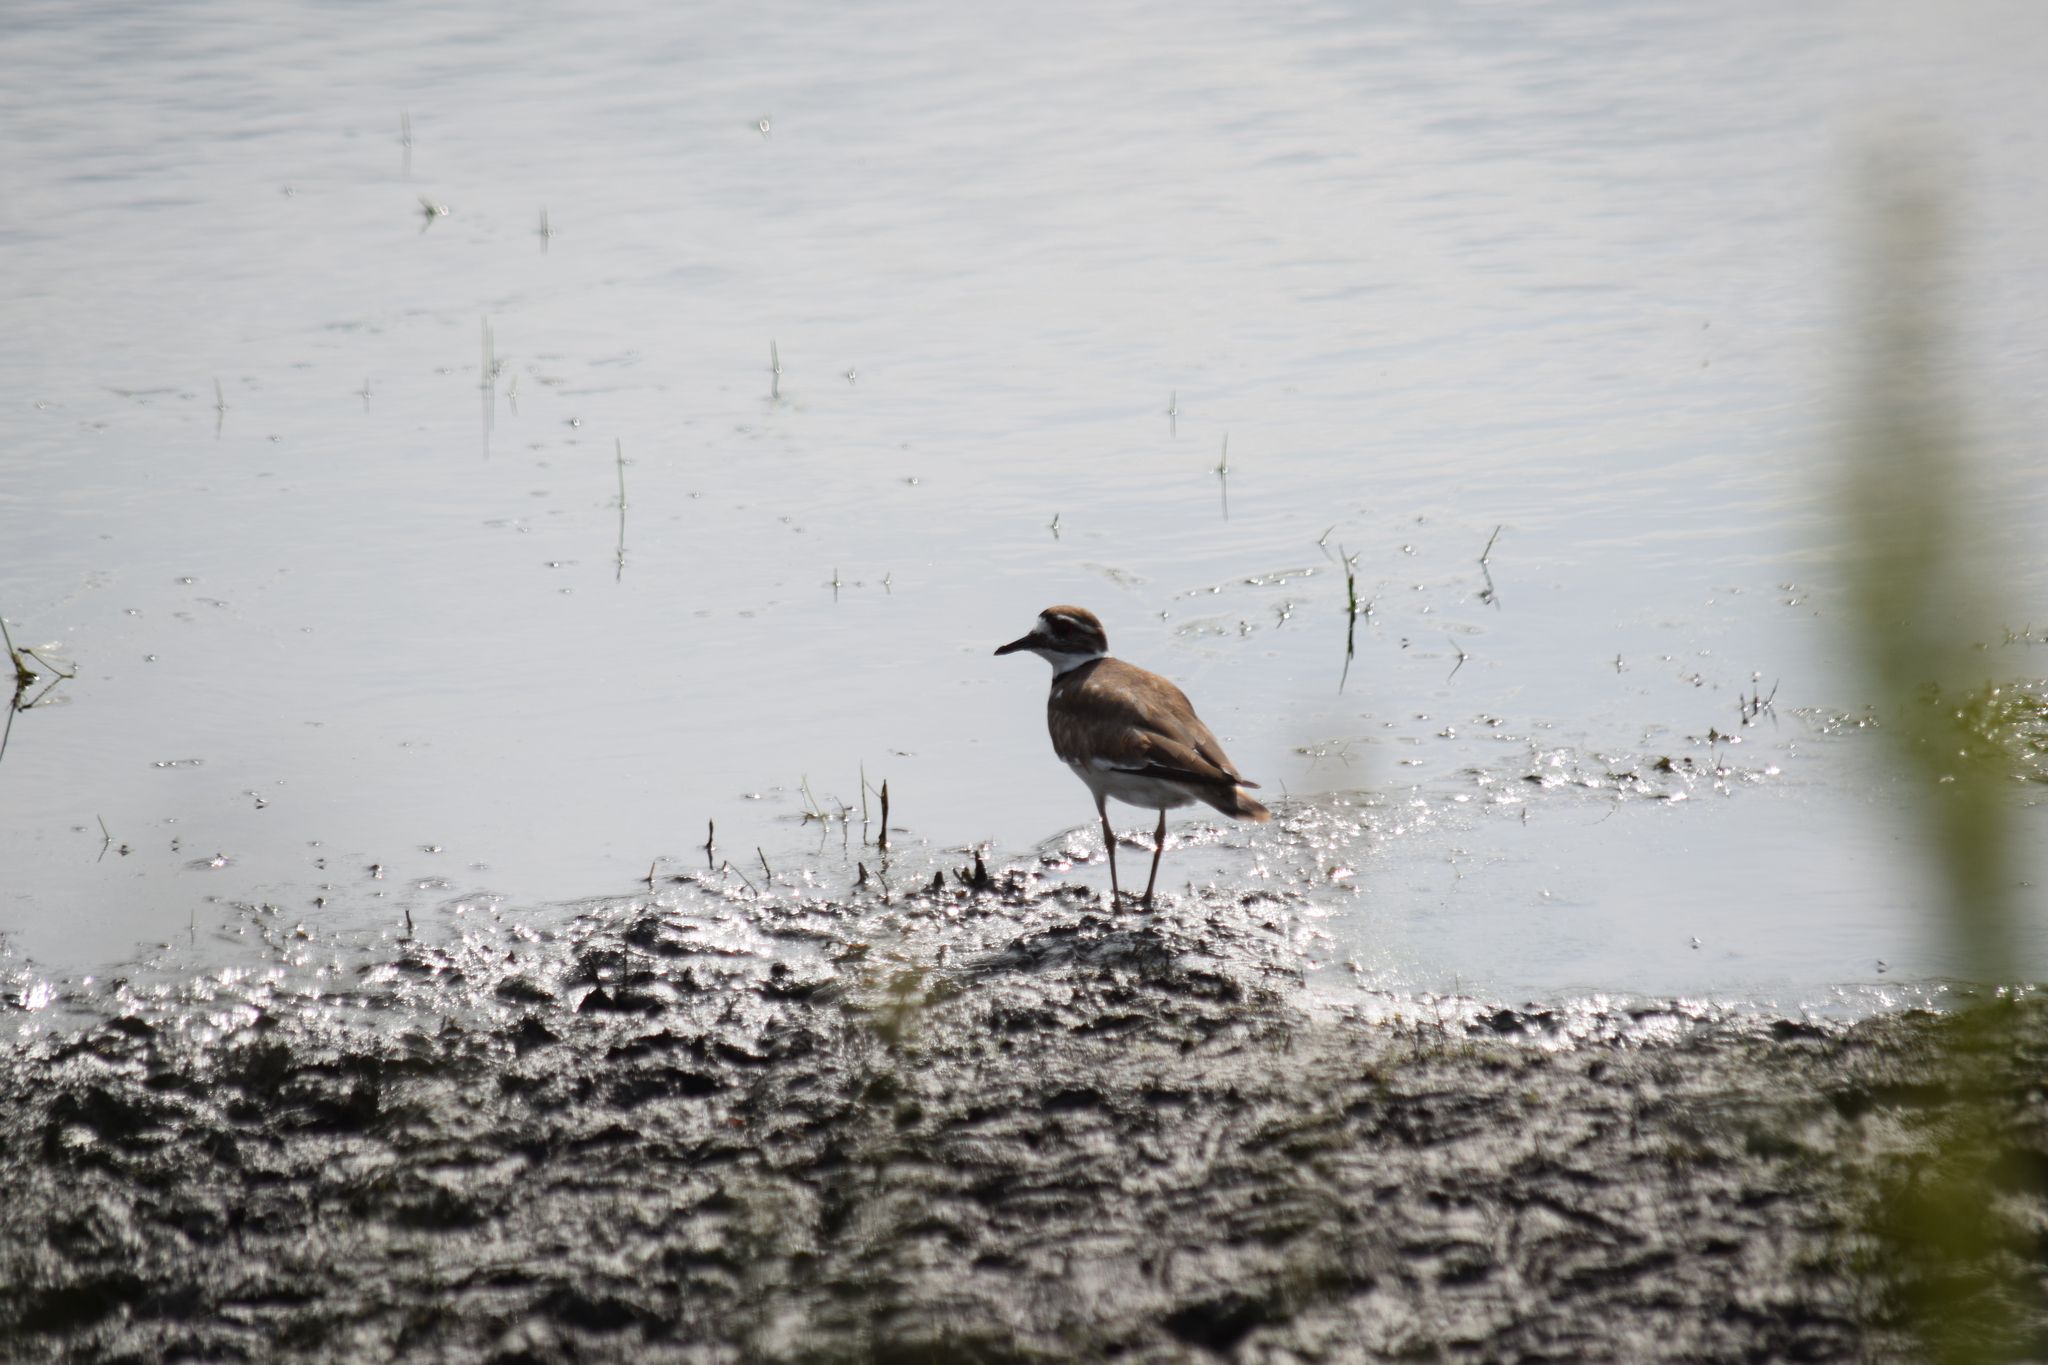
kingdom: Animalia
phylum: Chordata
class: Aves
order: Charadriiformes
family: Charadriidae
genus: Charadrius
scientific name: Charadrius vociferus
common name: Killdeer
